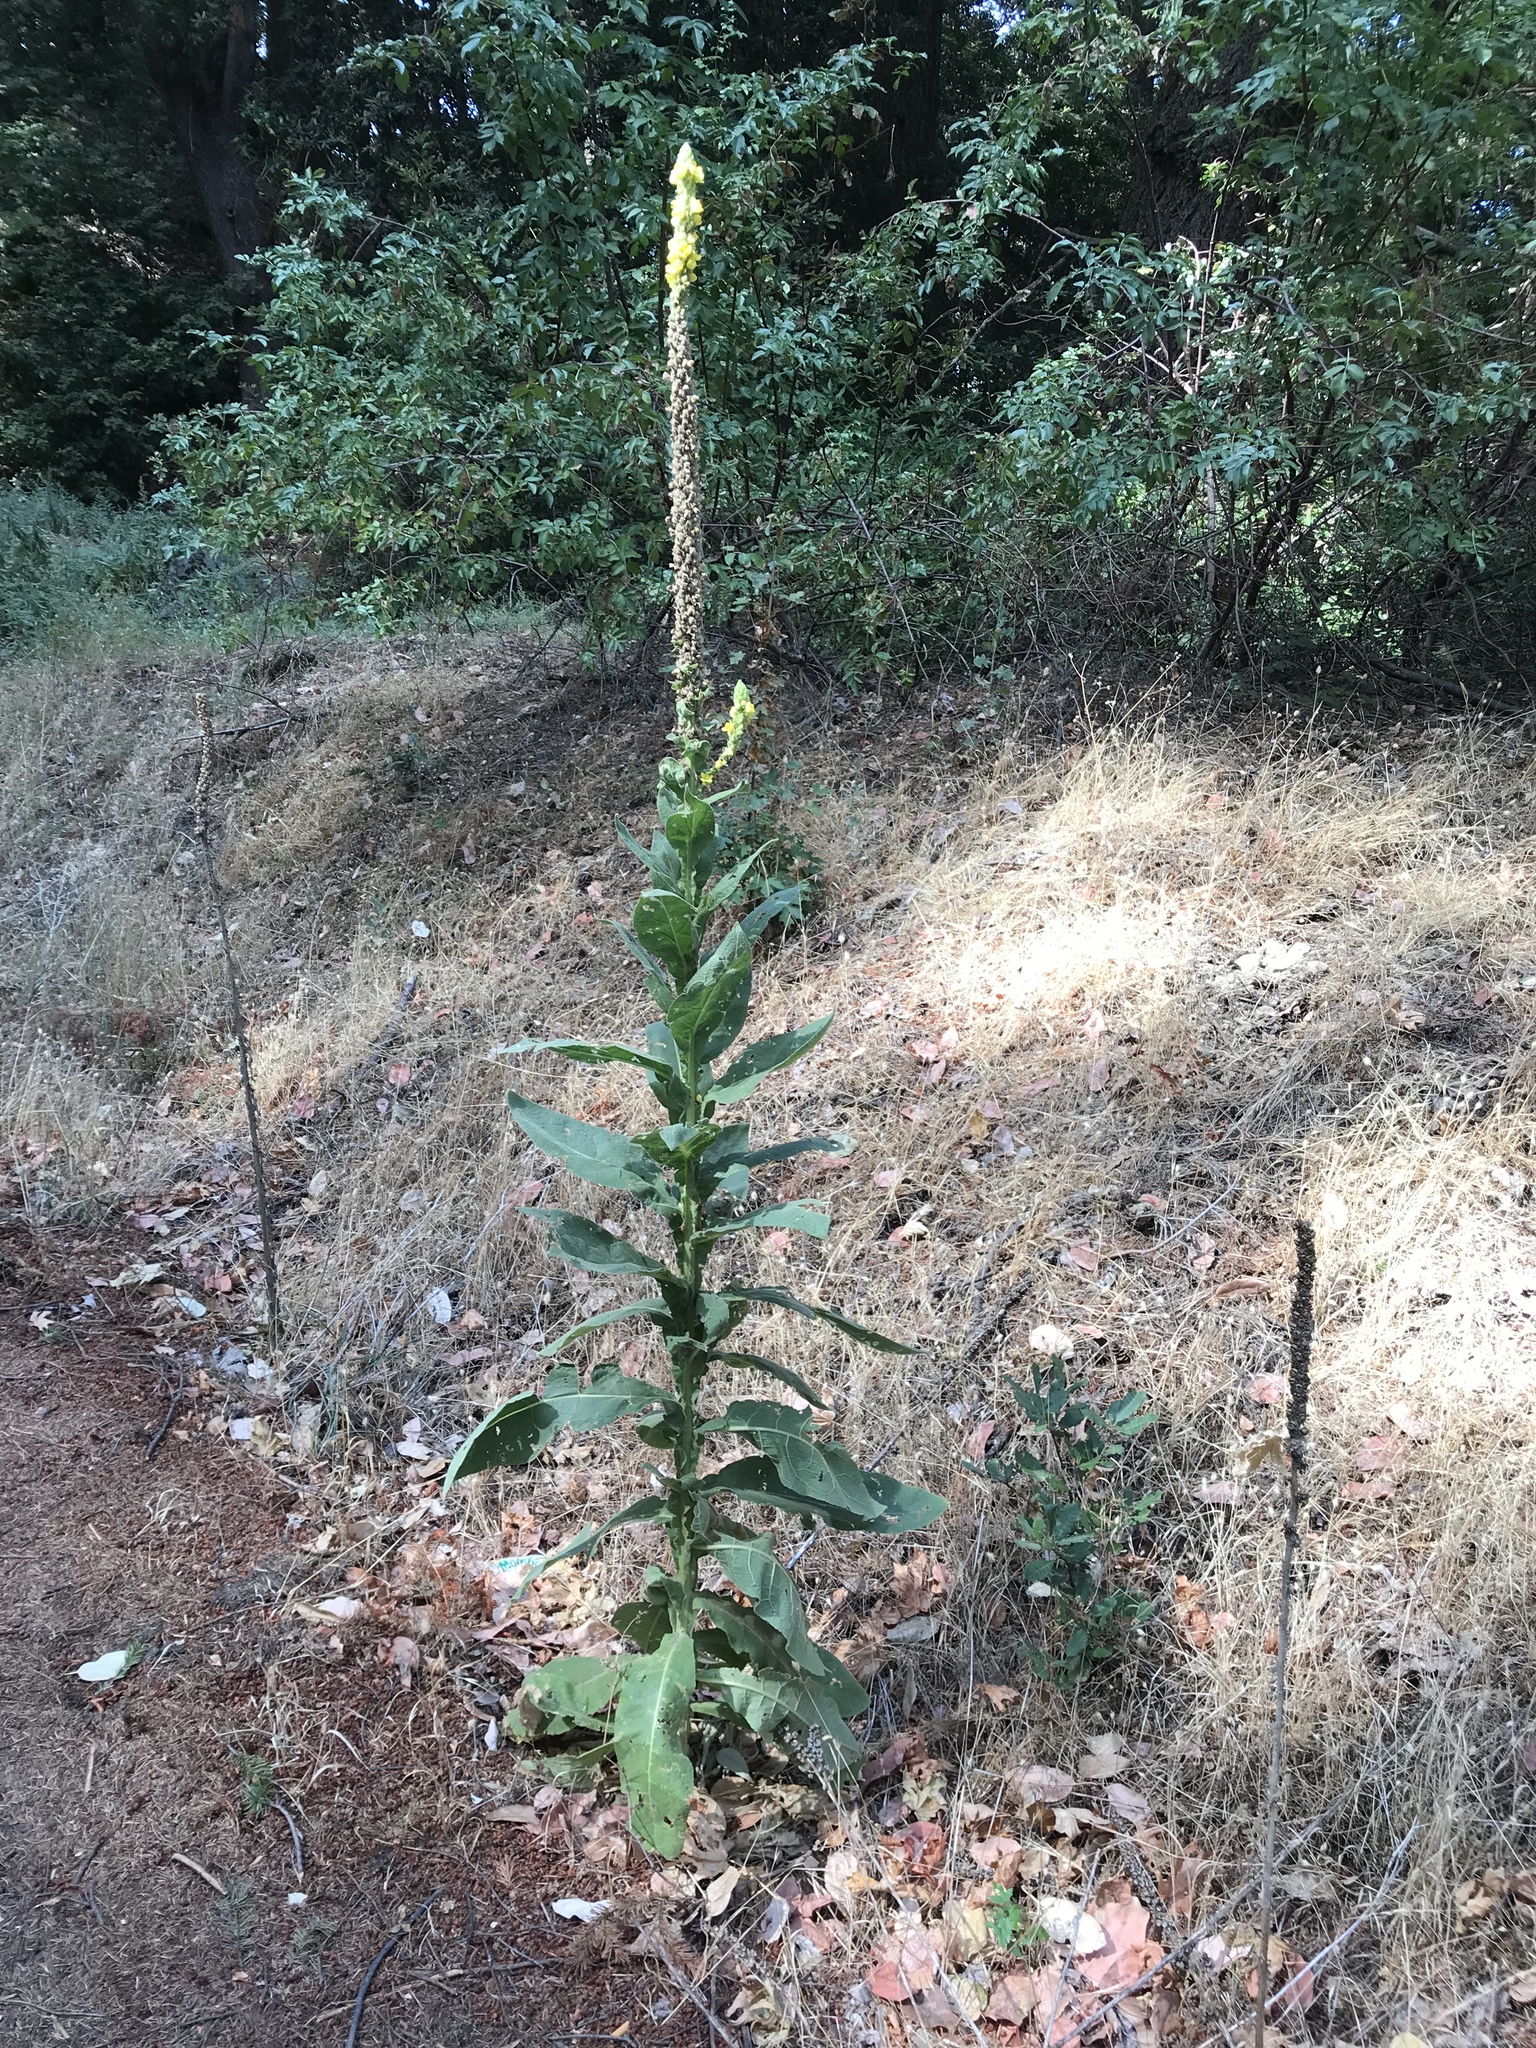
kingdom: Plantae
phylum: Tracheophyta
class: Magnoliopsida
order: Lamiales
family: Scrophulariaceae
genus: Verbascum
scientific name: Verbascum thapsus
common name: Common mullein
